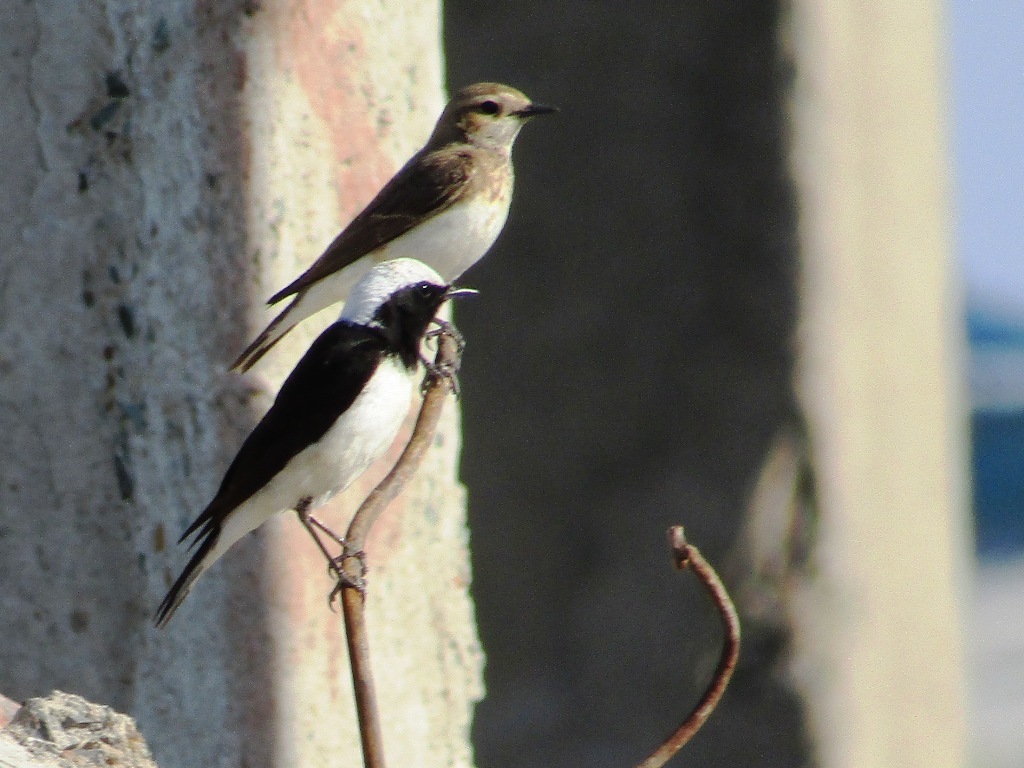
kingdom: Animalia
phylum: Chordata
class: Aves
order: Passeriformes
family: Muscicapidae
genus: Oenanthe
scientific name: Oenanthe pleschanka
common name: Pied wheatear
